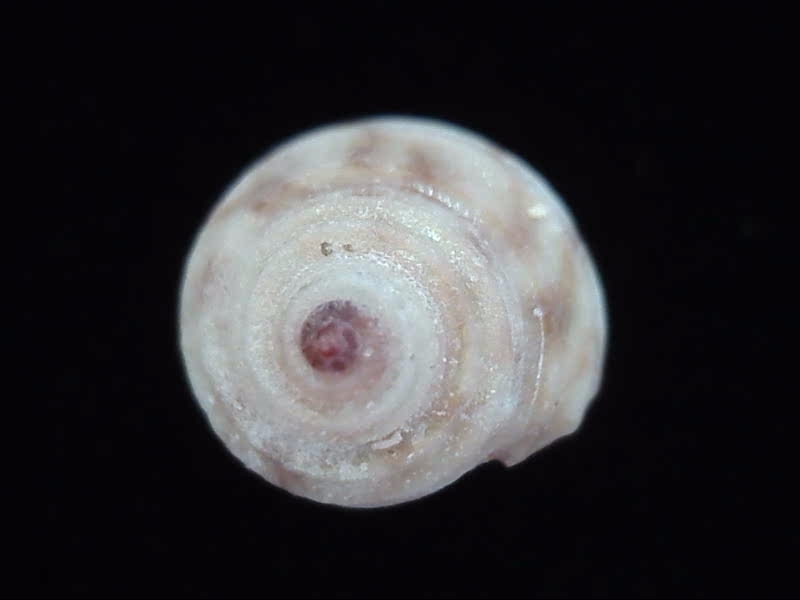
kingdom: Animalia
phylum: Mollusca
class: Gastropoda
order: Trochida
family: Trochidae
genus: Antisolarium
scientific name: Antisolarium egenum
